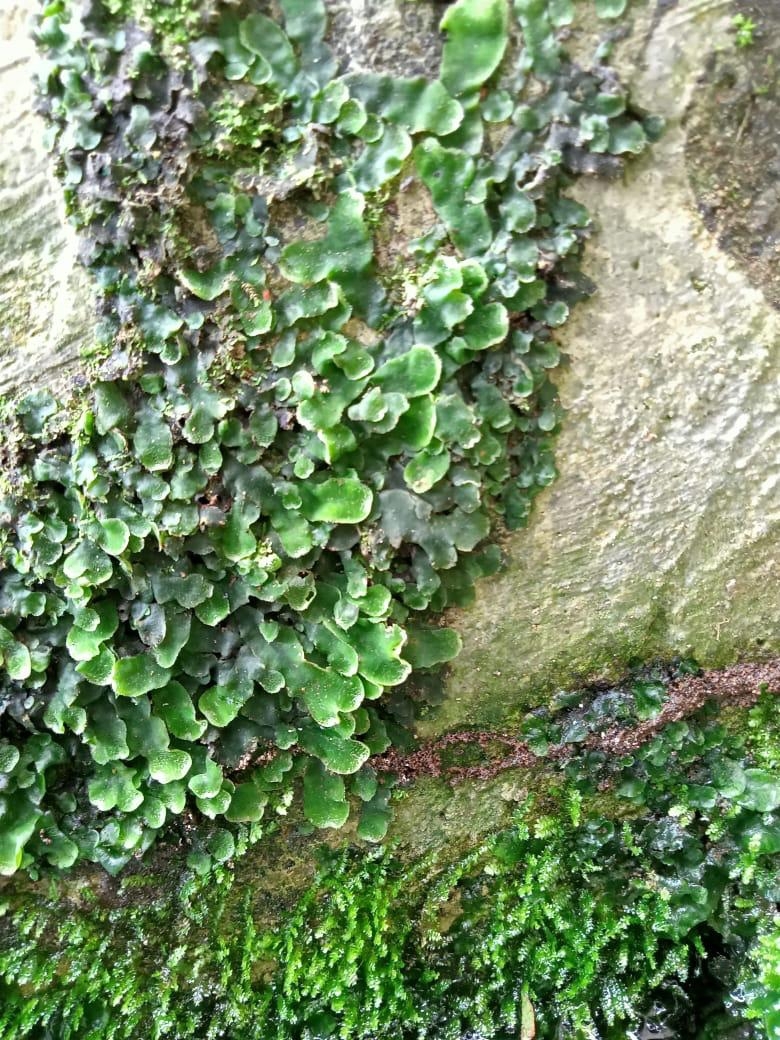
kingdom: Plantae
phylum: Marchantiophyta
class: Marchantiopsida
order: Marchantiales
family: Dumortieraceae
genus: Dumortiera
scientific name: Dumortiera hirsuta
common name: Dumortier's liverwort
